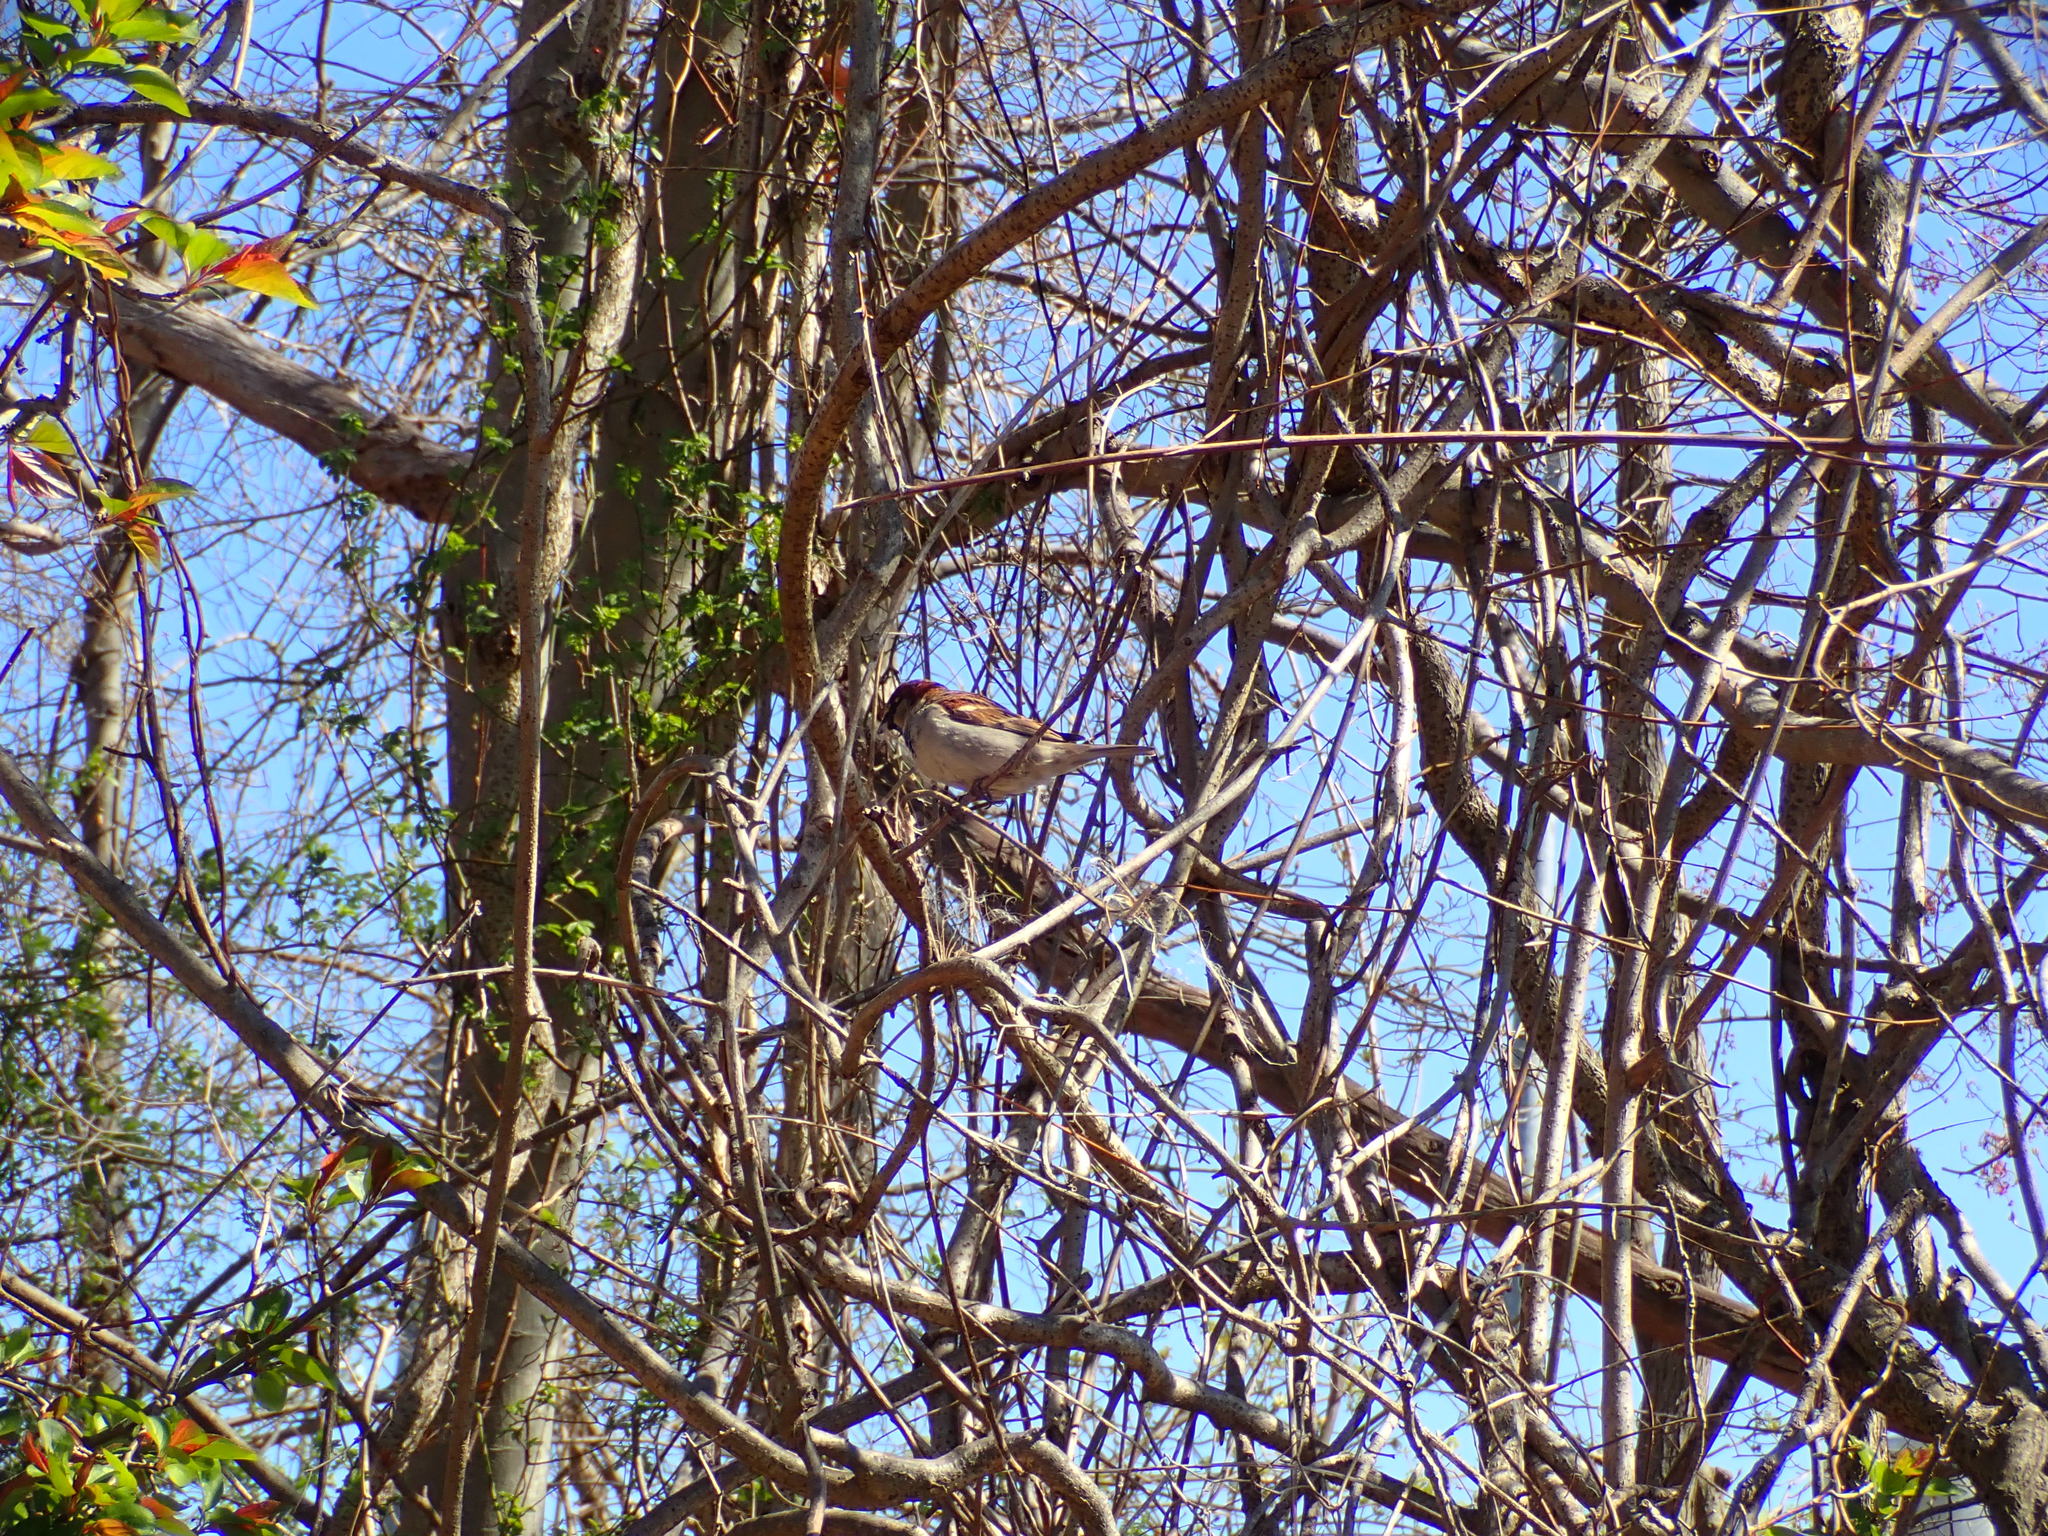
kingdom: Animalia
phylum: Chordata
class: Aves
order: Passeriformes
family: Passeridae
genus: Passer
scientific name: Passer domesticus
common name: House sparrow
